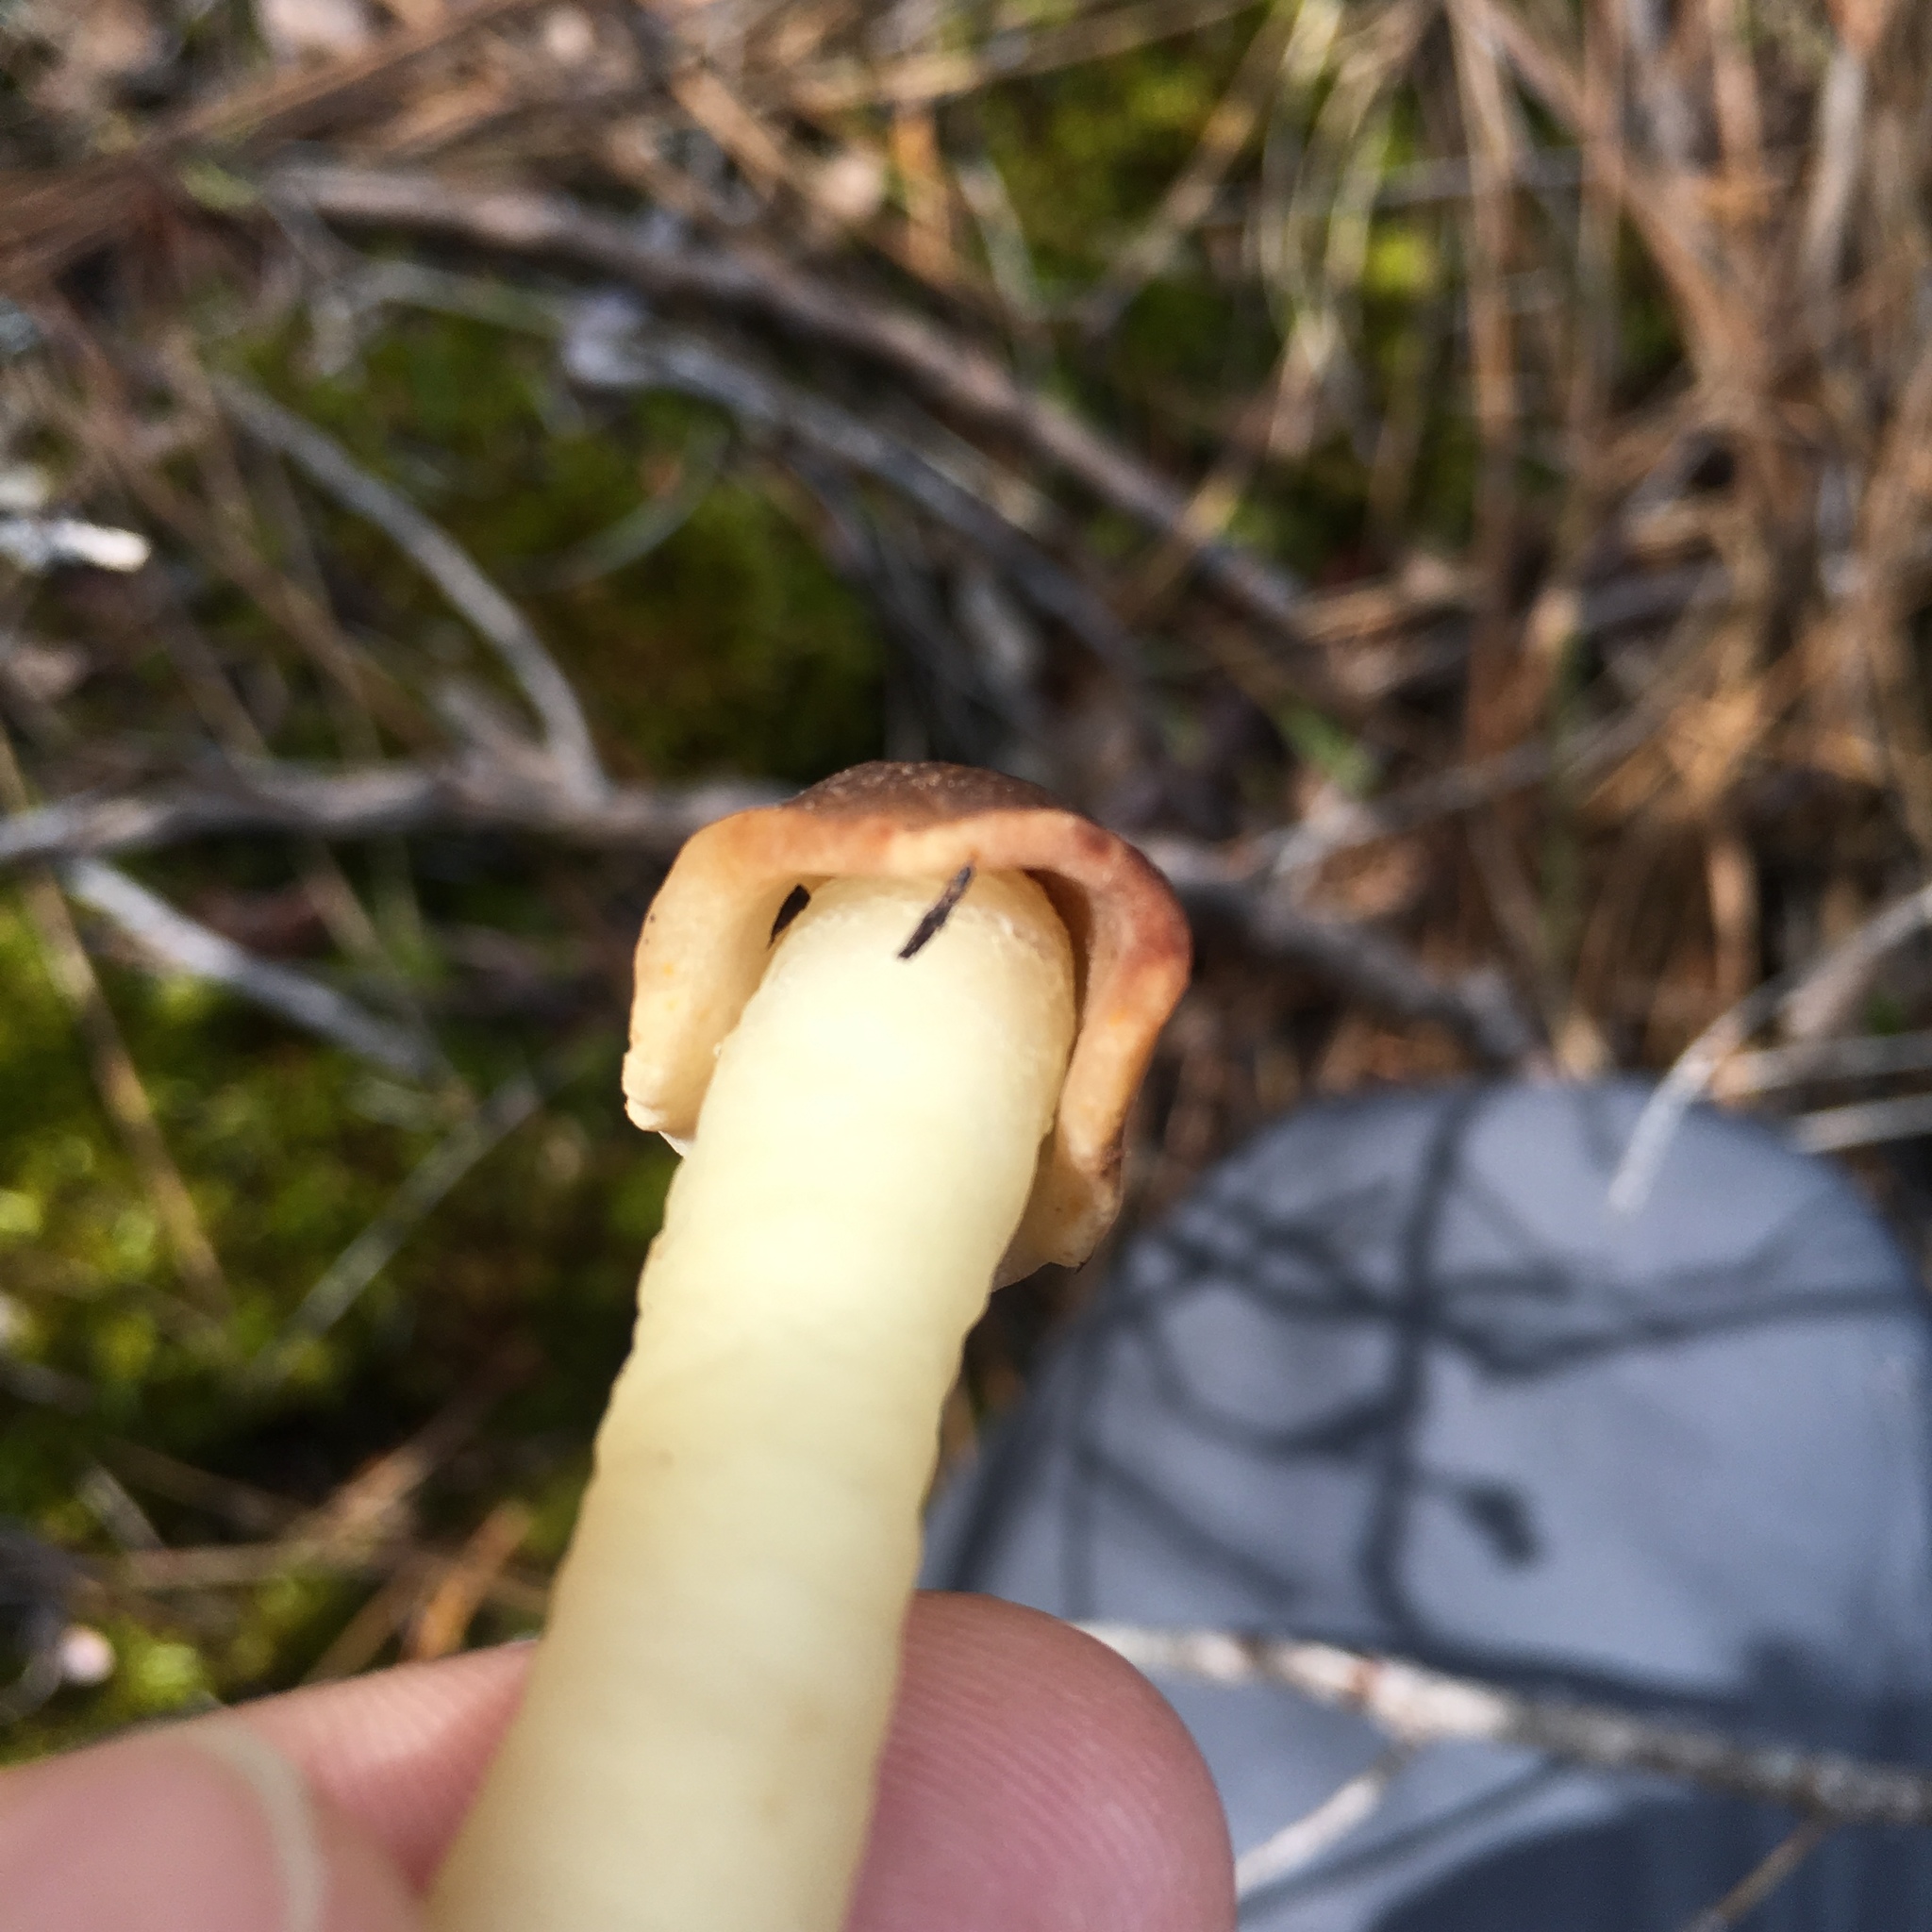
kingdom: Fungi
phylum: Ascomycota
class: Pezizomycetes
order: Pezizales
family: Morchellaceae
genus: Verpa
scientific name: Verpa conica
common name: Thimble morel
